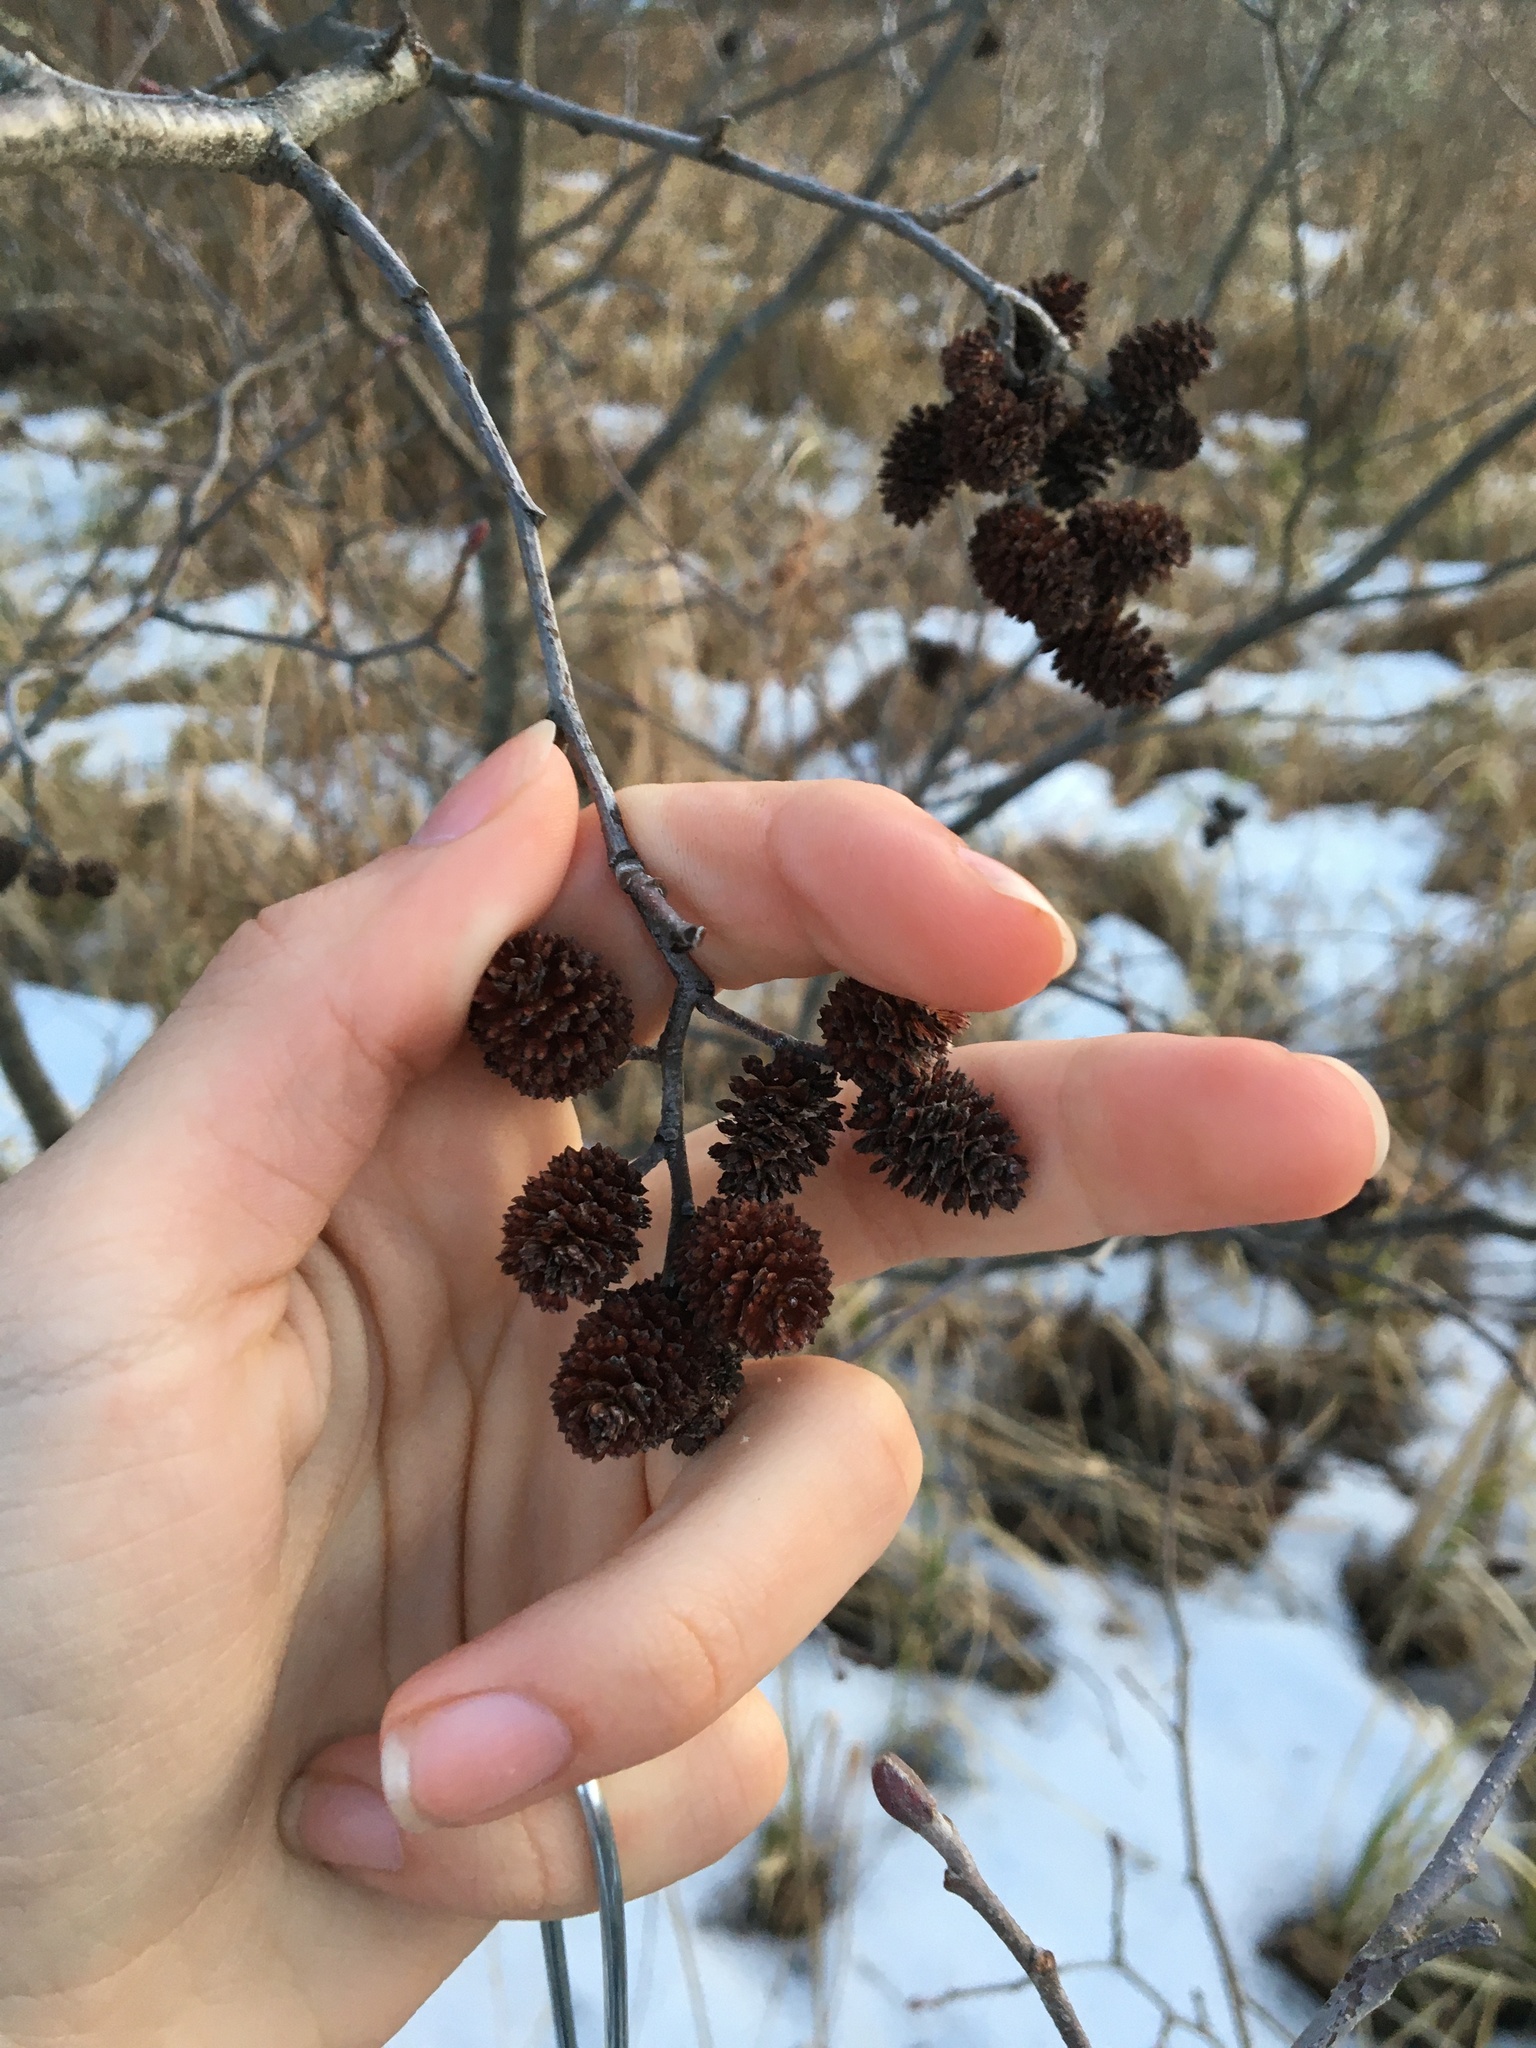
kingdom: Plantae
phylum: Tracheophyta
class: Magnoliopsida
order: Fagales
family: Betulaceae
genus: Alnus
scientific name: Alnus incana
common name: Grey alder
